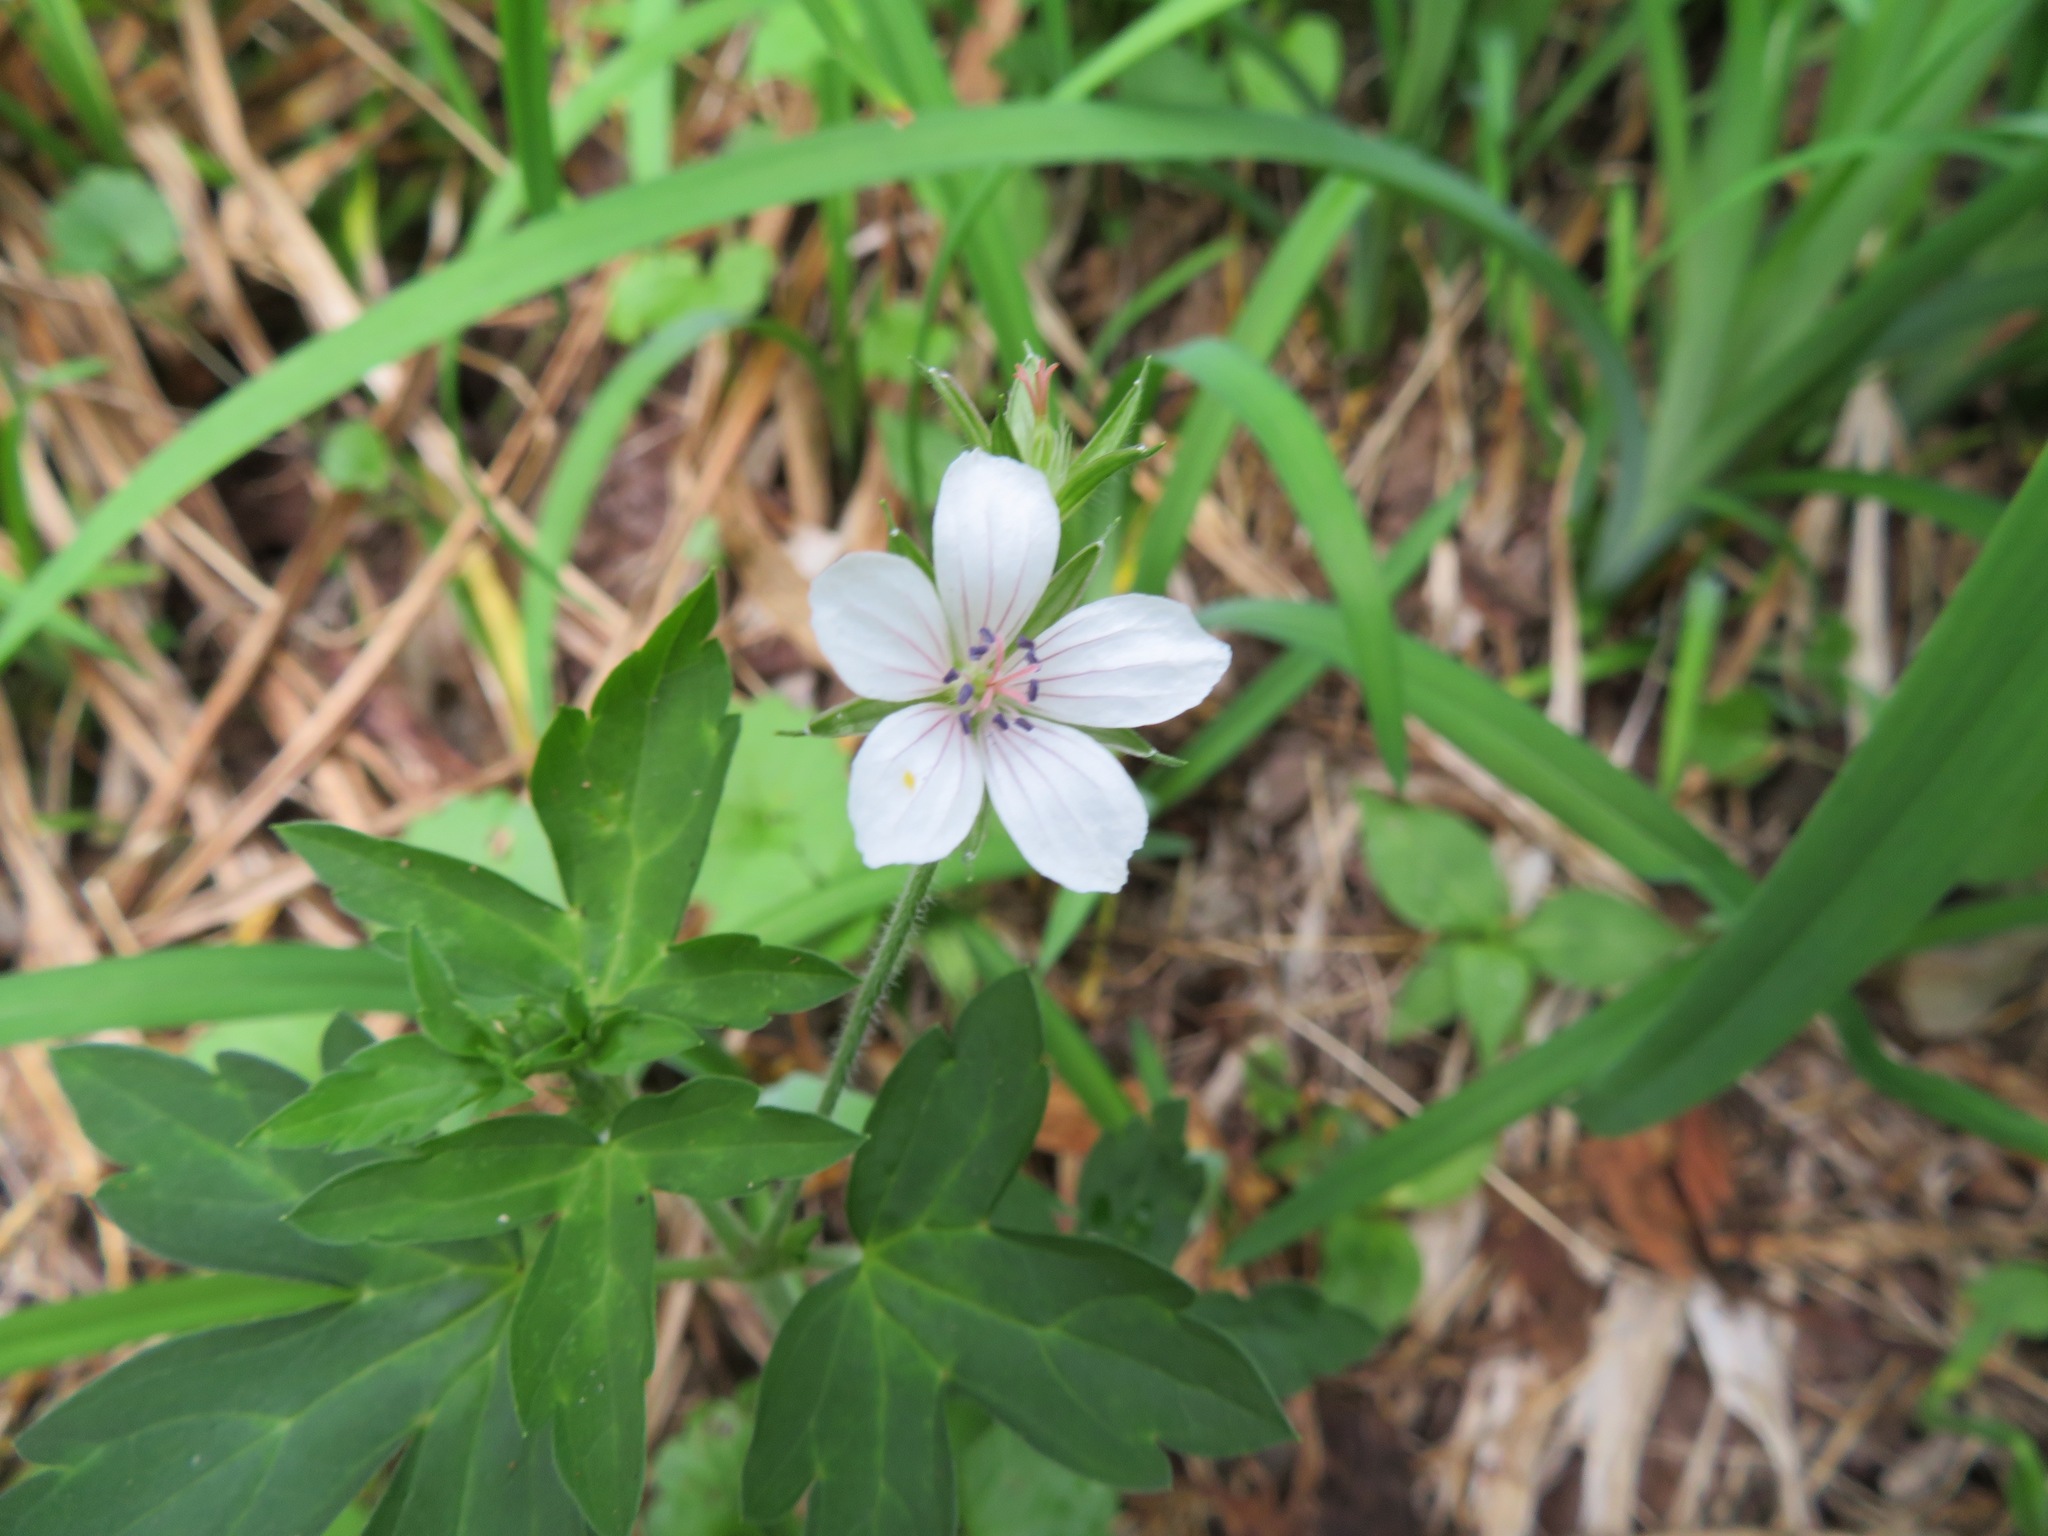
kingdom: Plantae
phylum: Tracheophyta
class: Magnoliopsida
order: Geraniales
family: Geraniaceae
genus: Geranium
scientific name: Geranium thunbergii
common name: Dewdrop crane's-bill
